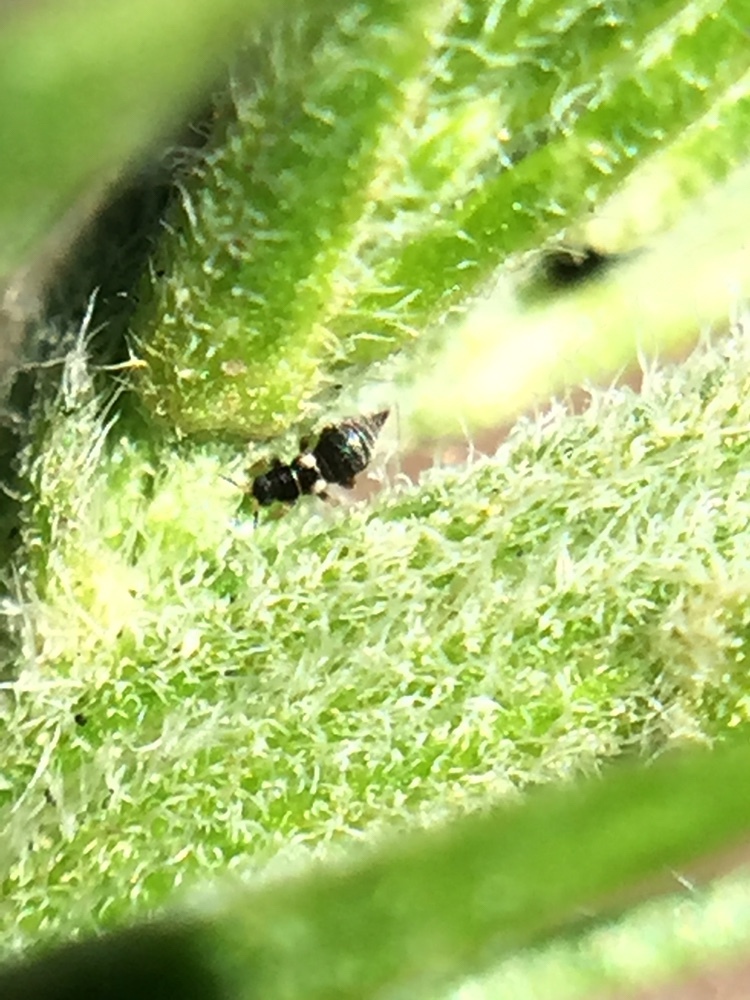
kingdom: Animalia
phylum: Arthropoda
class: Insecta
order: Thysanoptera
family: Thripidae
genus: Sericothrips
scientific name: Sericothrips staphylinus
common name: Gorse thrips
